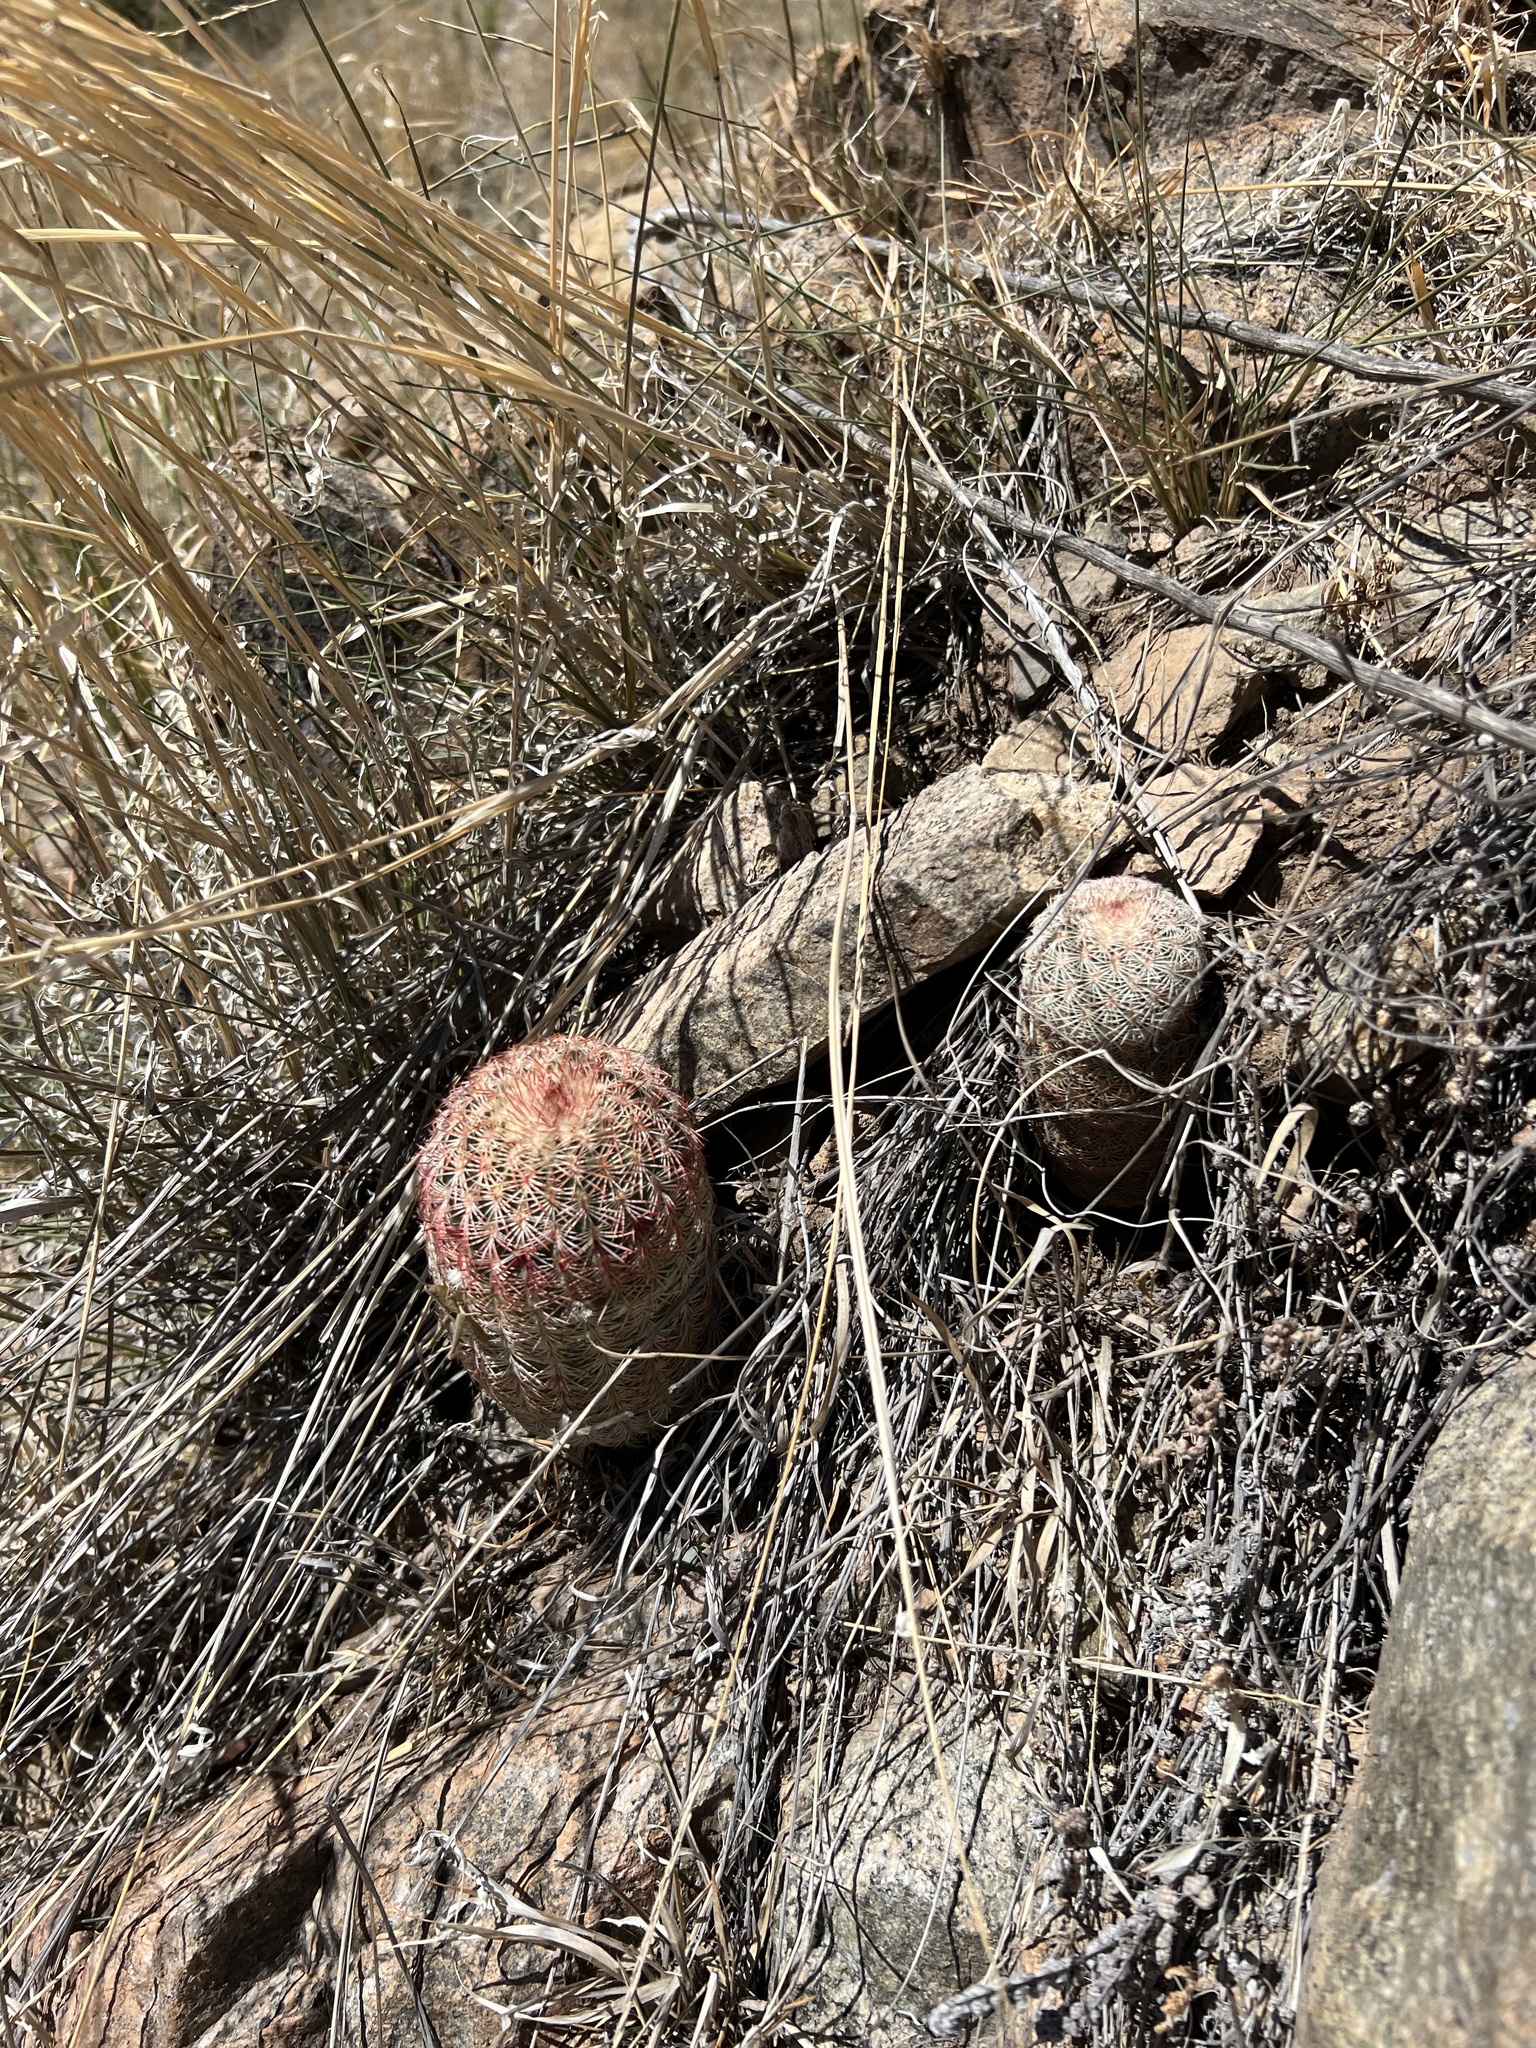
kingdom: Plantae
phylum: Tracheophyta
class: Magnoliopsida
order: Caryophyllales
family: Cactaceae
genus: Echinocereus
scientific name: Echinocereus rigidissimus
